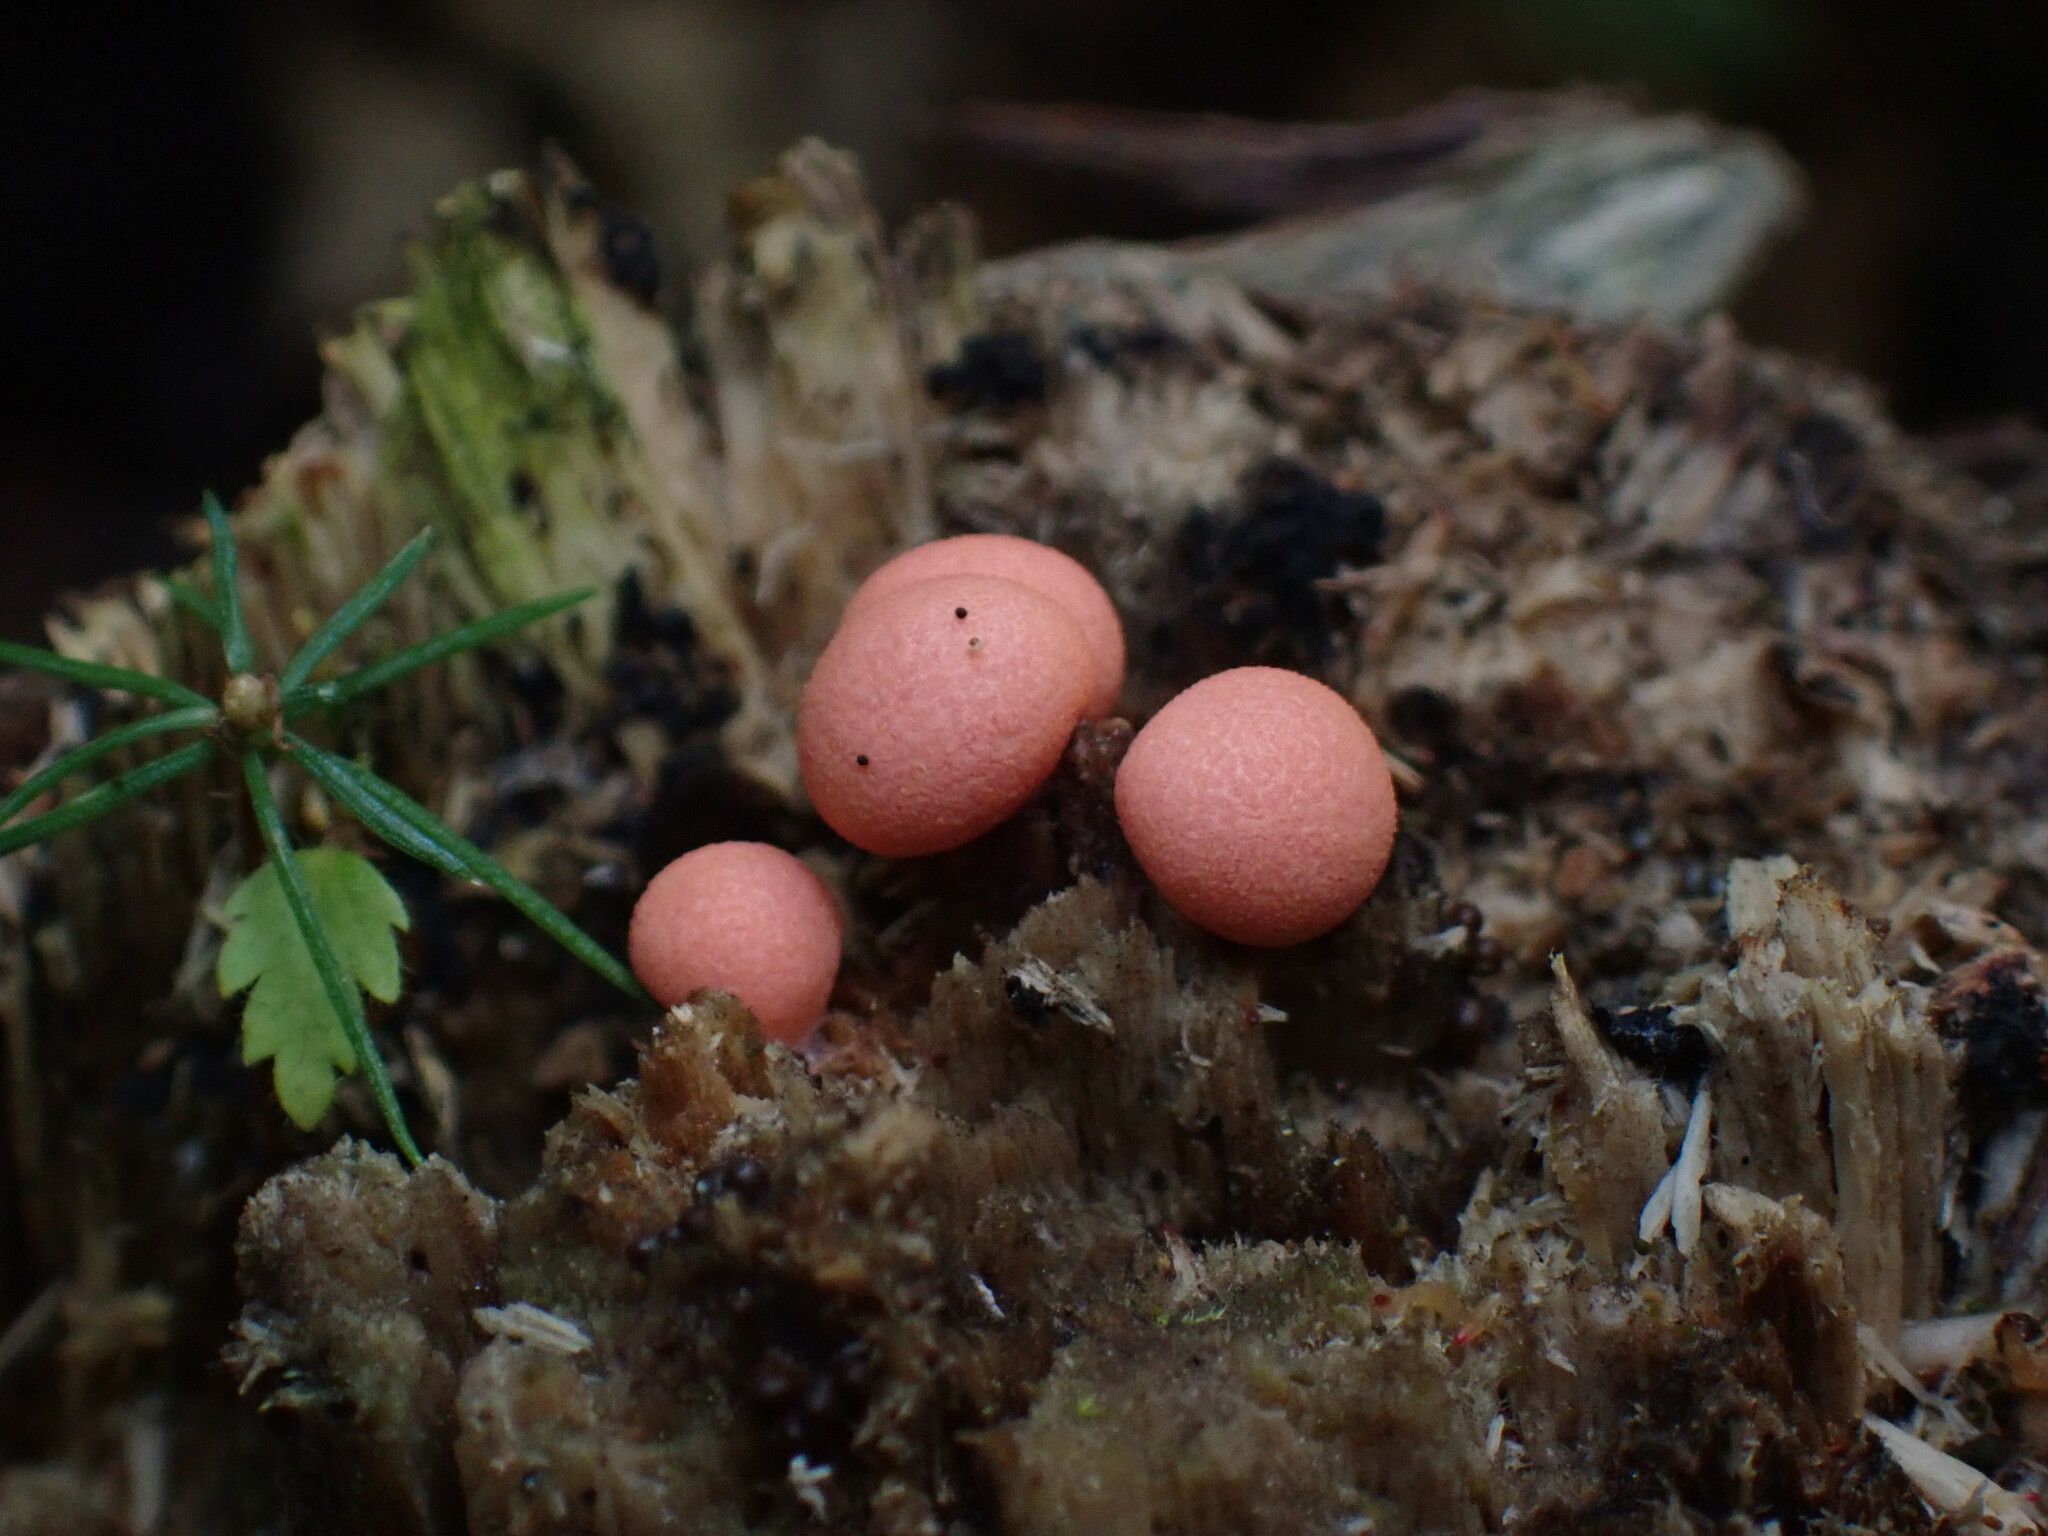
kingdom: Protozoa
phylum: Mycetozoa
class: Myxomycetes
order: Cribrariales
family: Tubiferaceae
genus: Lycogala
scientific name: Lycogala epidendrum
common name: Wolf's milk
